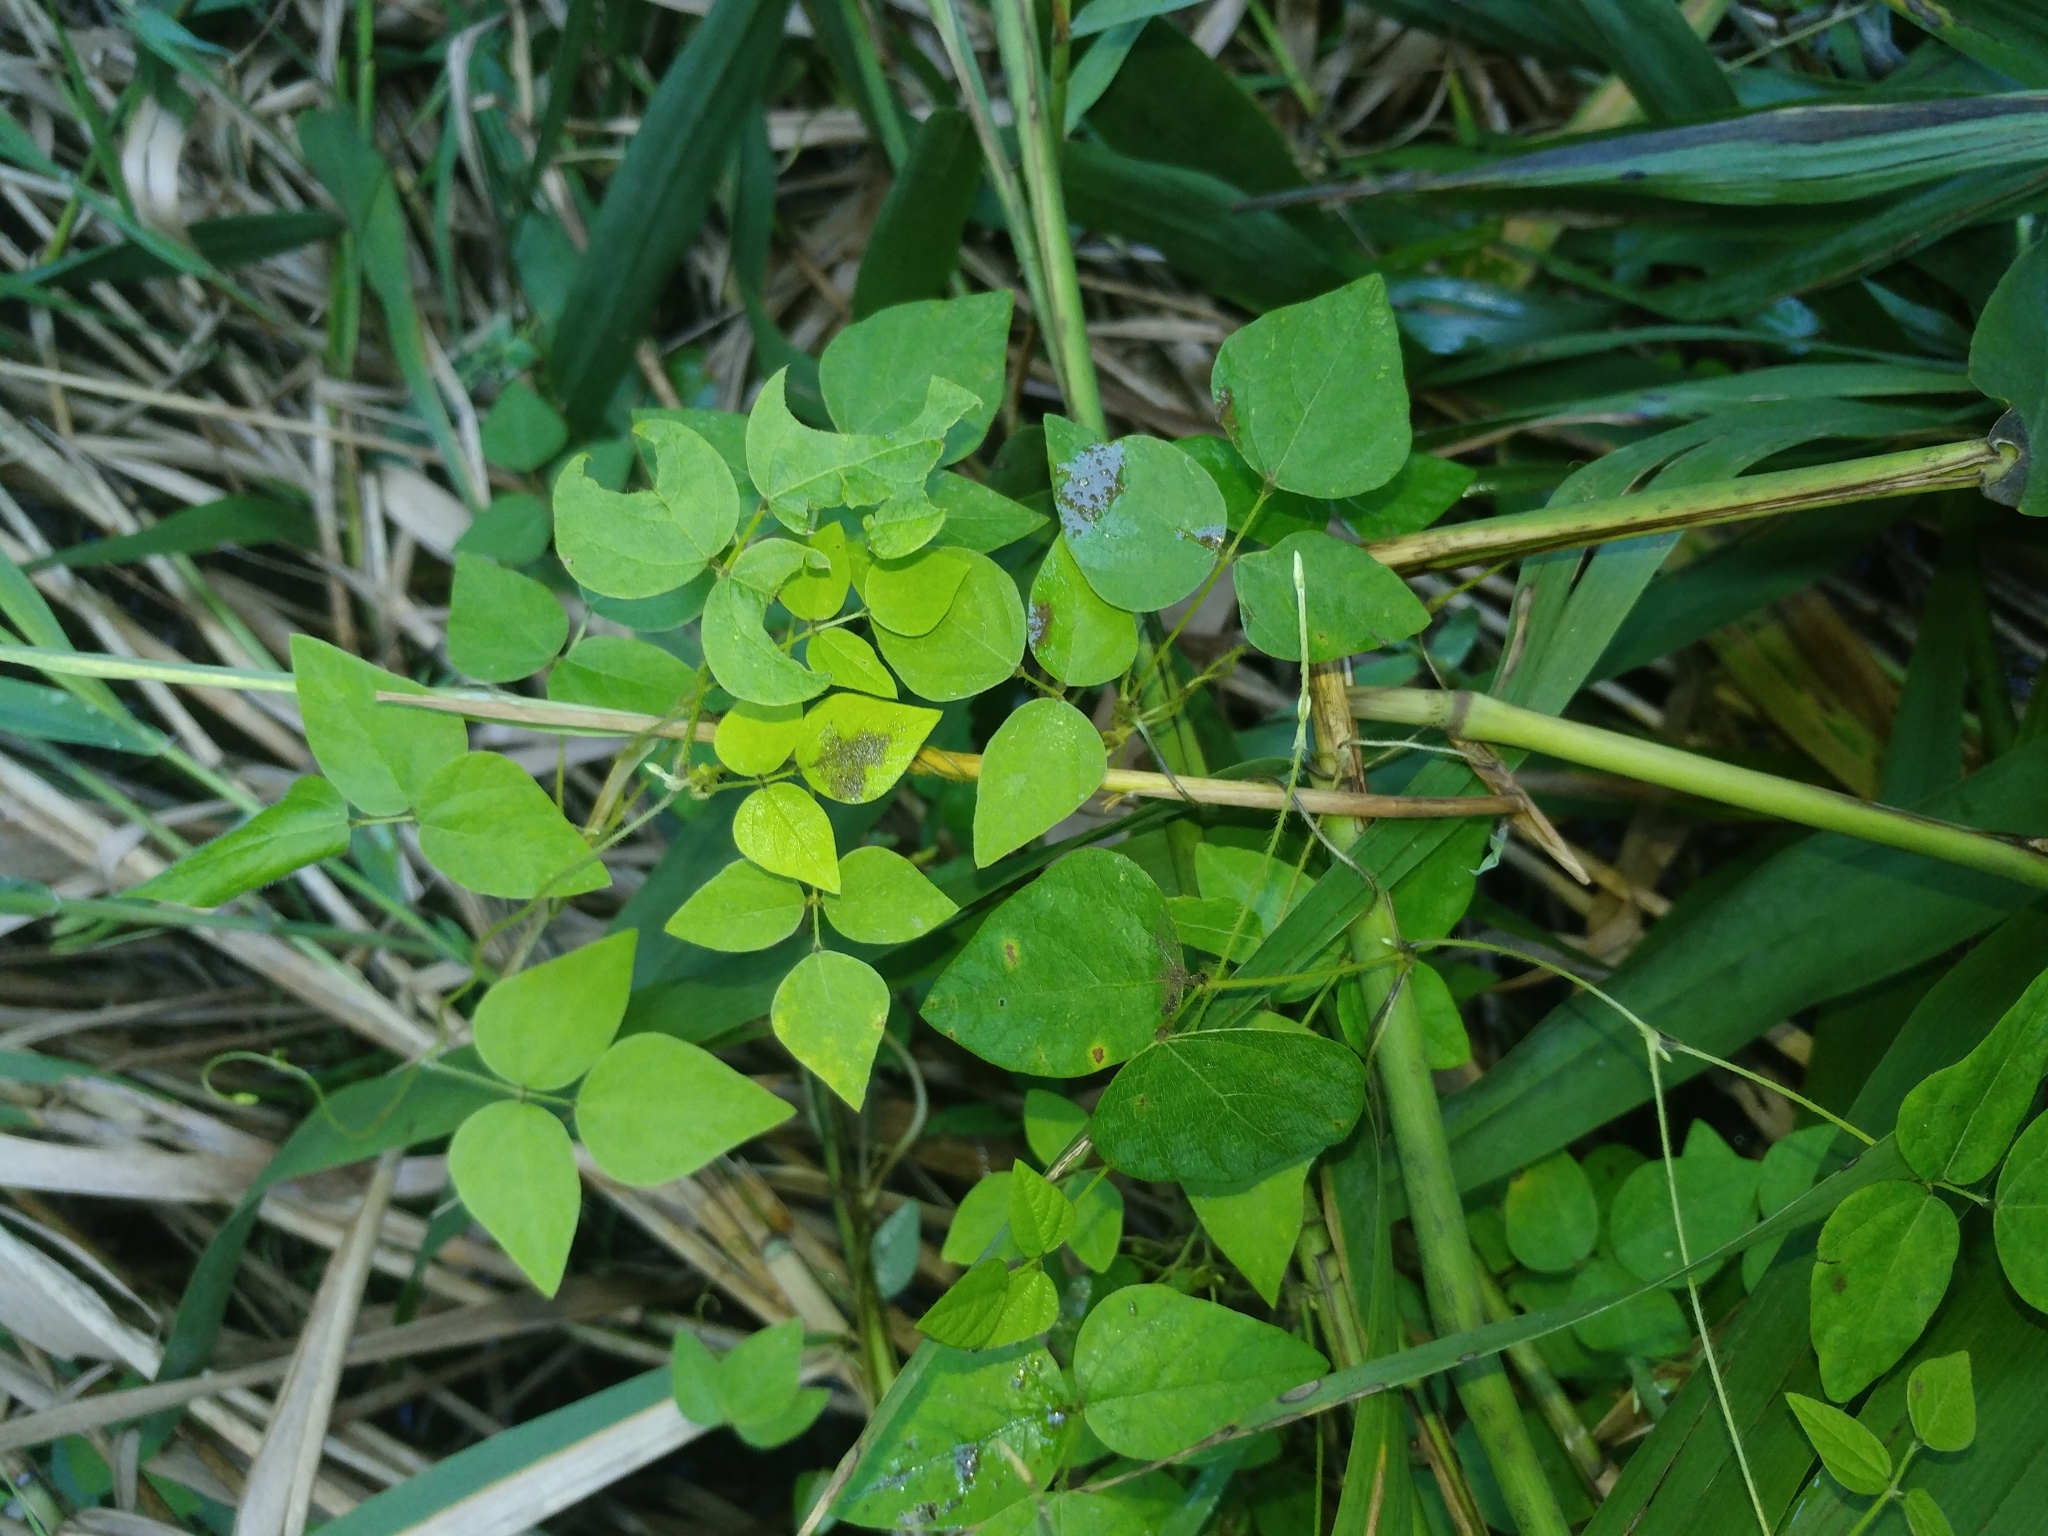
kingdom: Plantae
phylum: Tracheophyta
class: Magnoliopsida
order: Fabales
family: Fabaceae
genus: Amphicarpaea
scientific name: Amphicarpaea bracteata
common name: American hog peanut
